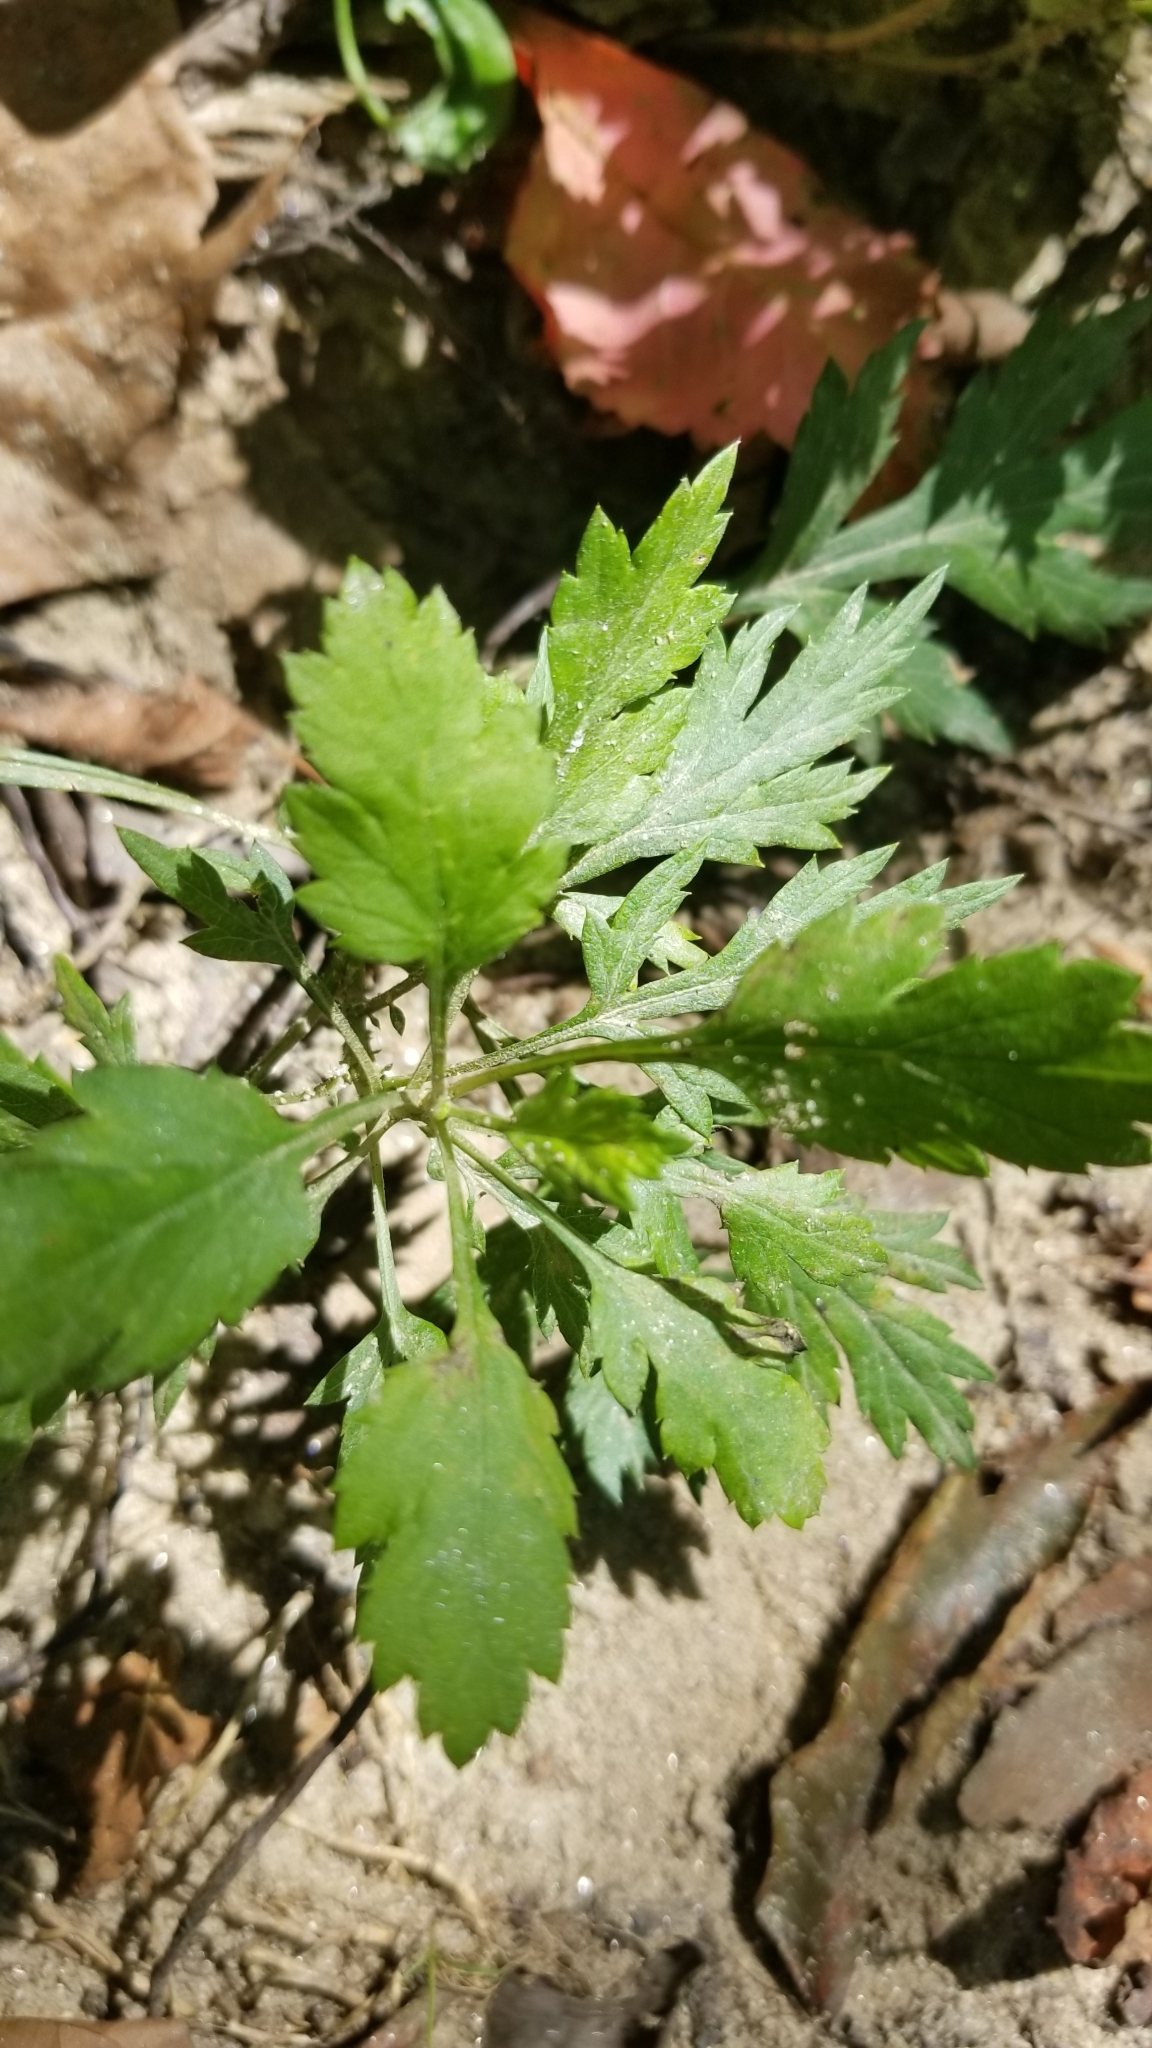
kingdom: Plantae
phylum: Tracheophyta
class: Magnoliopsida
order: Asterales
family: Asteraceae
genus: Artemisia
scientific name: Artemisia vulgaris
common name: Mugwort
